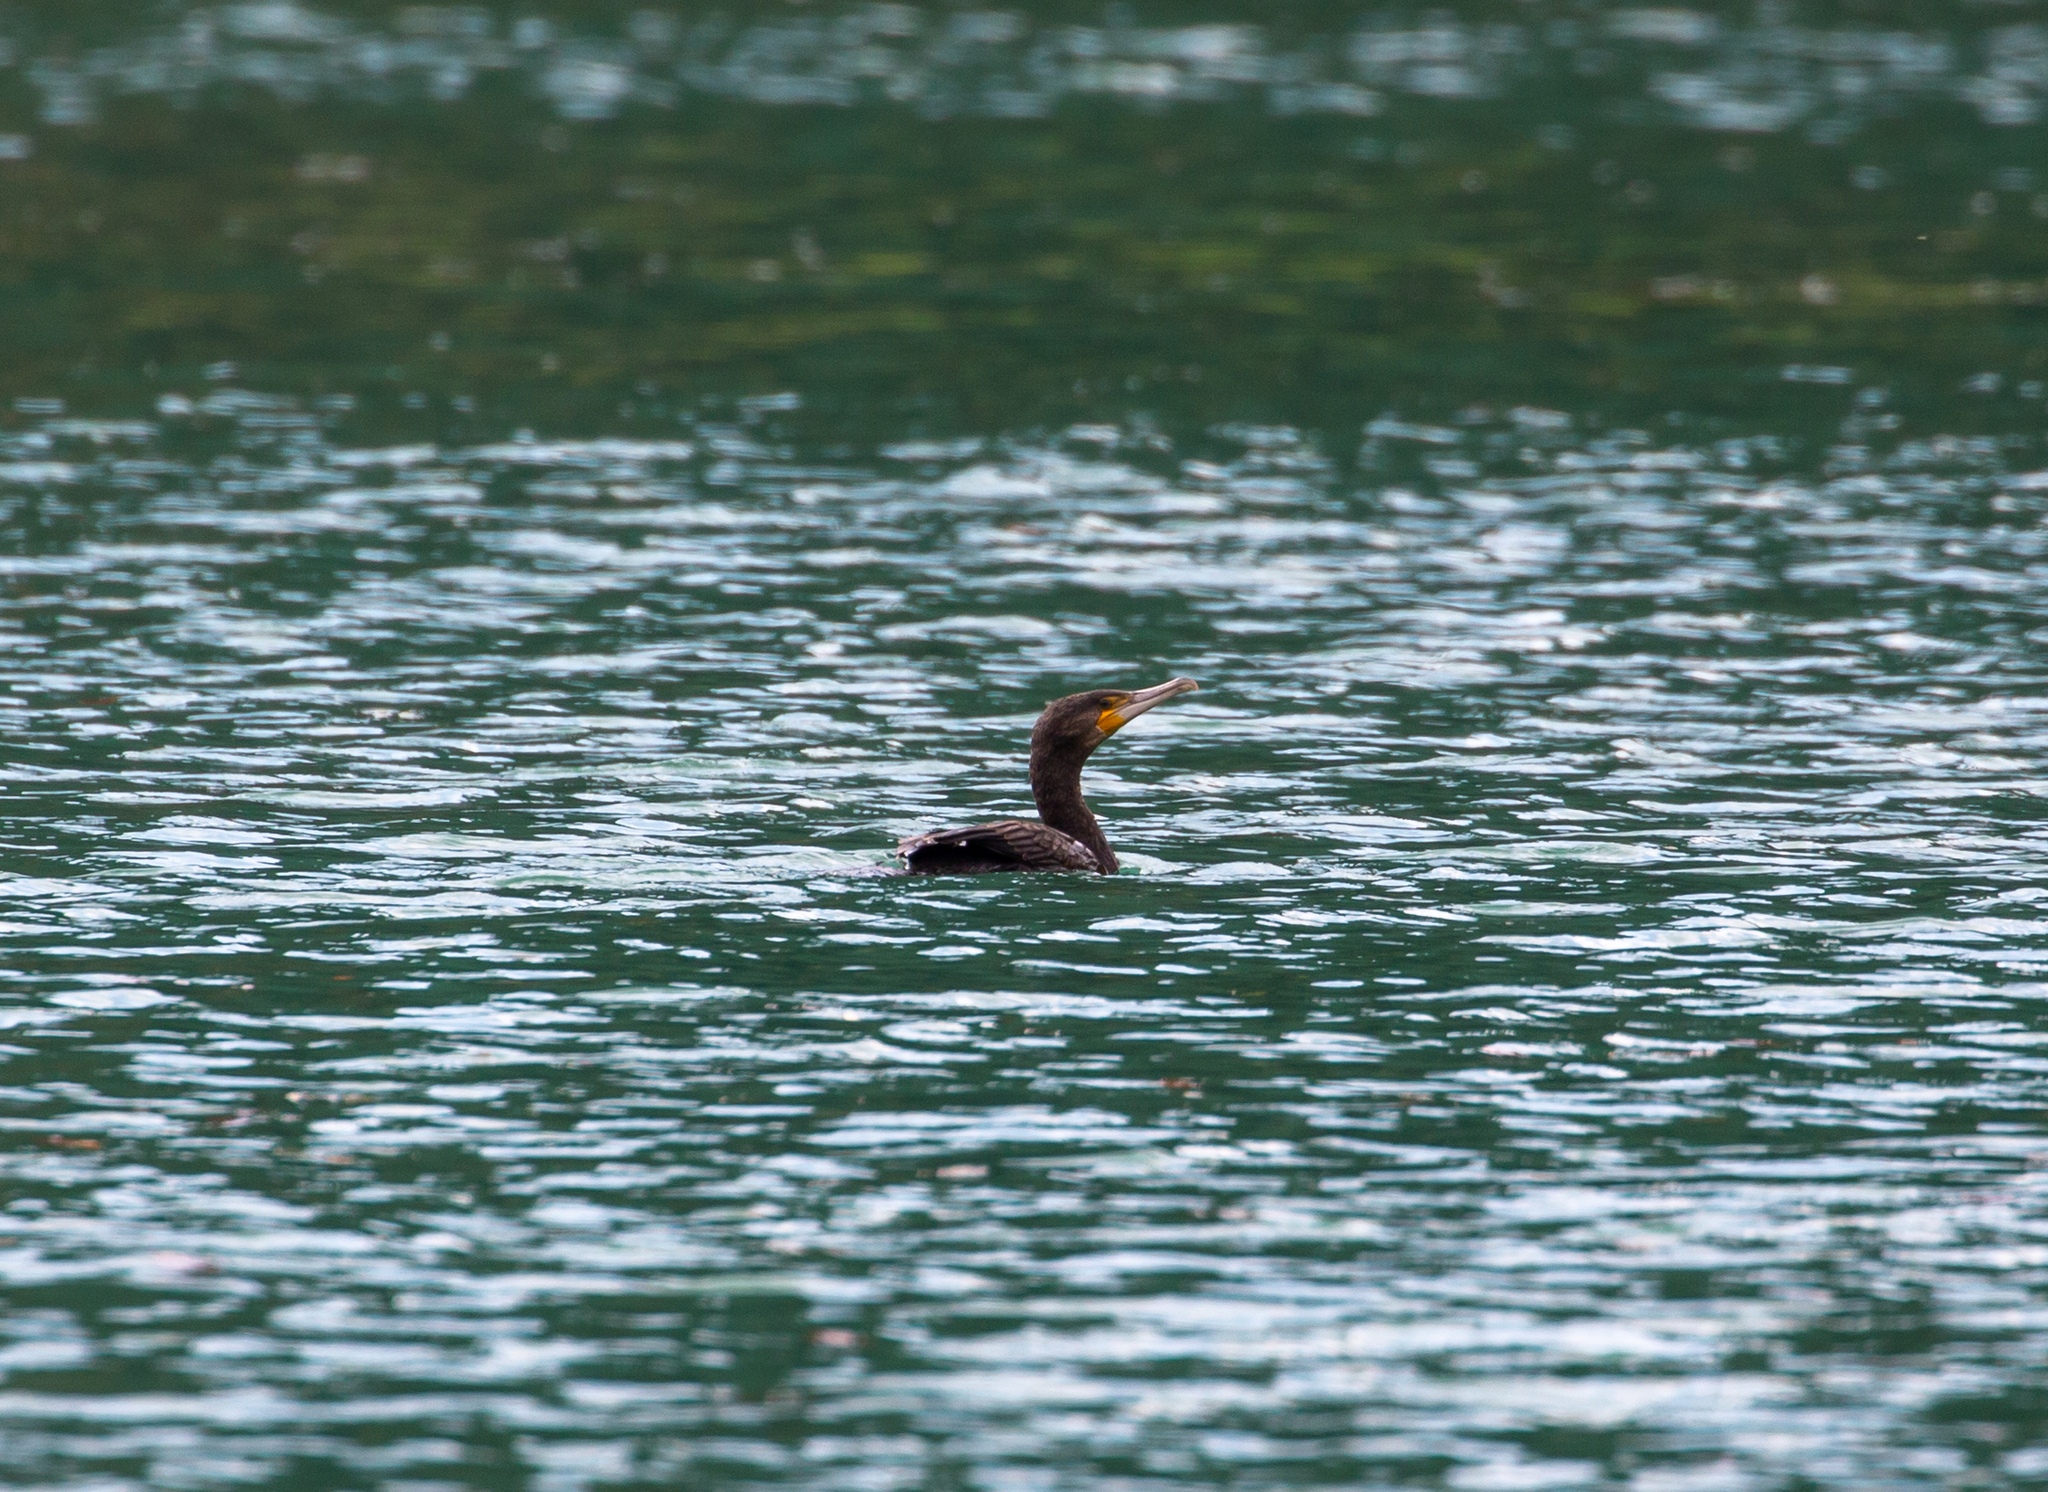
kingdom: Animalia
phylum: Chordata
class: Aves
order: Suliformes
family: Phalacrocoracidae
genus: Phalacrocorax
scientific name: Phalacrocorax carbo
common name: Great cormorant
